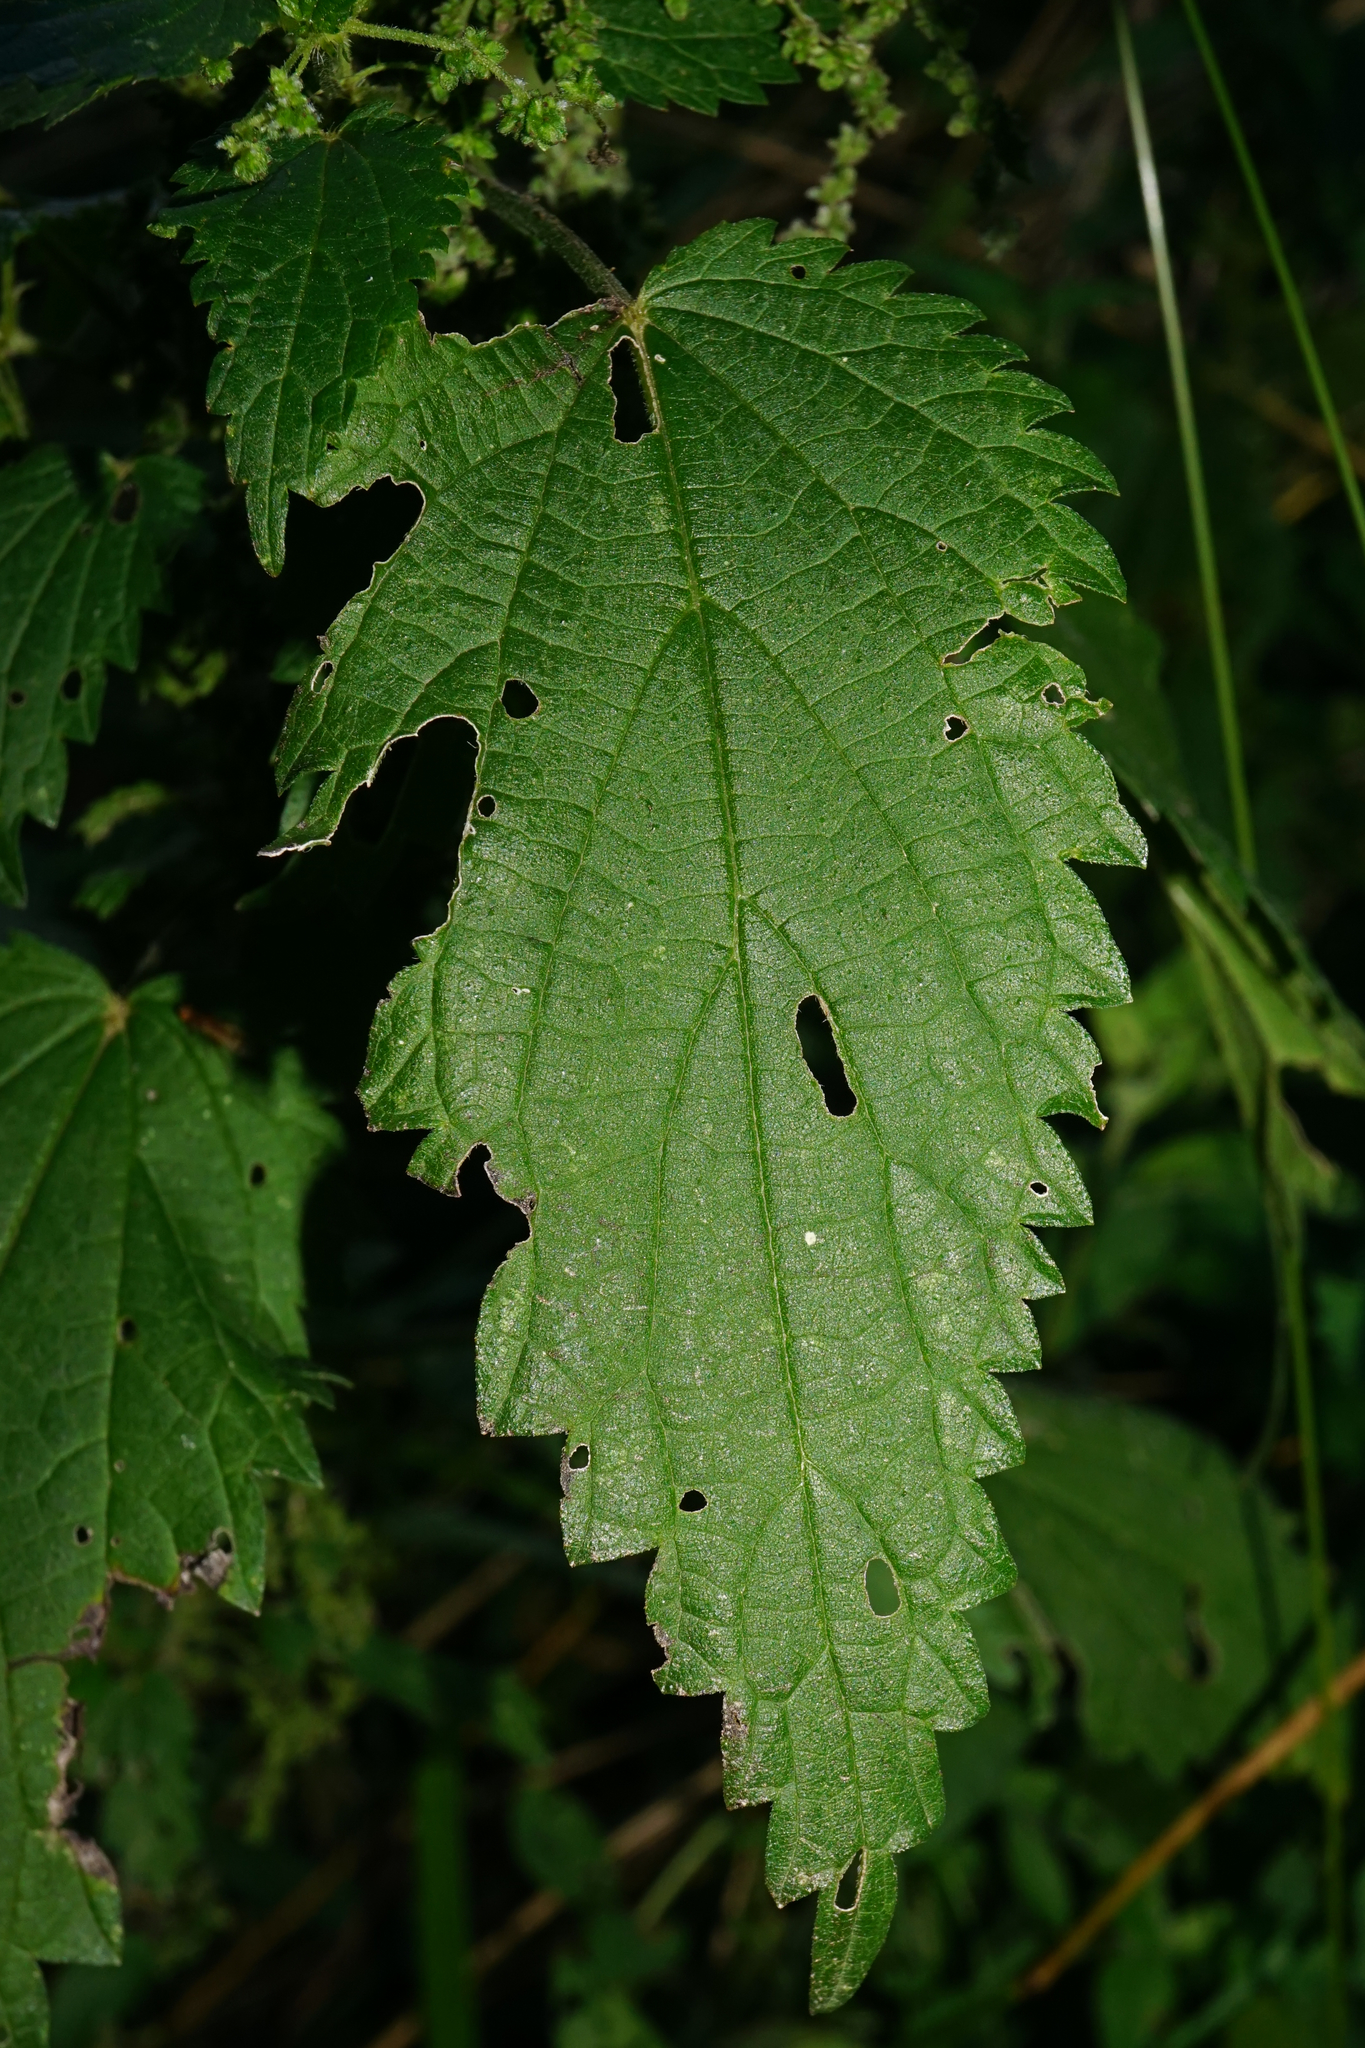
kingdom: Plantae
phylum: Tracheophyta
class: Magnoliopsida
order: Rosales
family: Urticaceae
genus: Urtica
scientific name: Urtica dioica
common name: Common nettle
